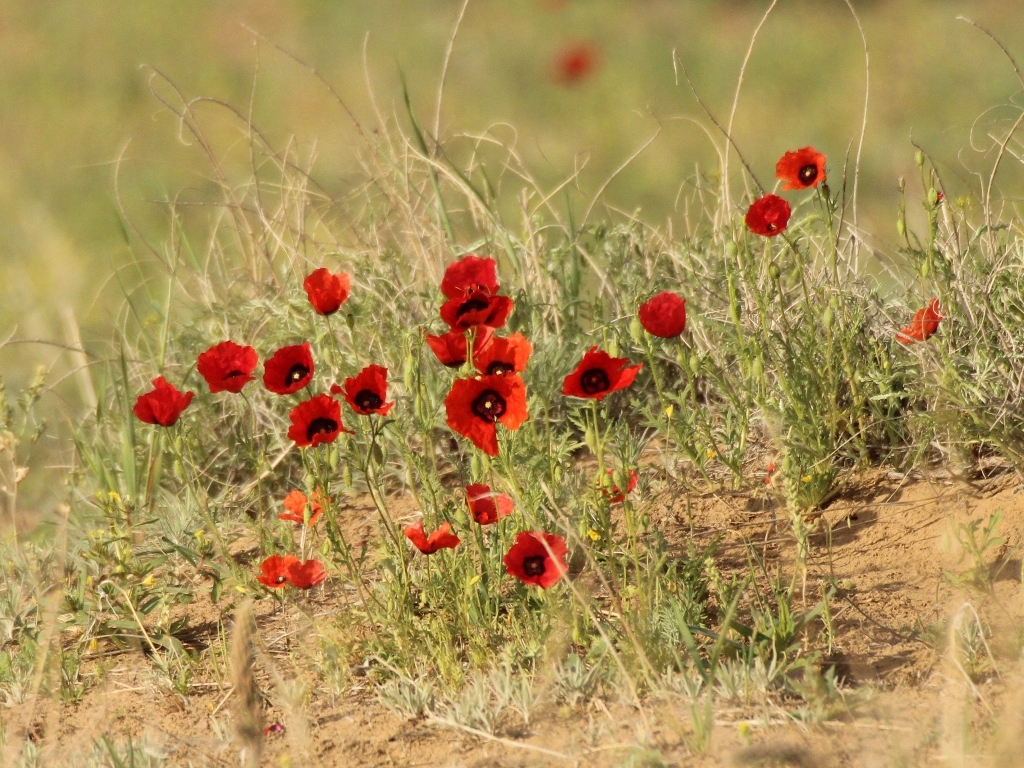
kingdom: Plantae
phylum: Tracheophyta
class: Magnoliopsida
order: Ranunculales
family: Papaveraceae
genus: Roemeria
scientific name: Roemeria pavonina
